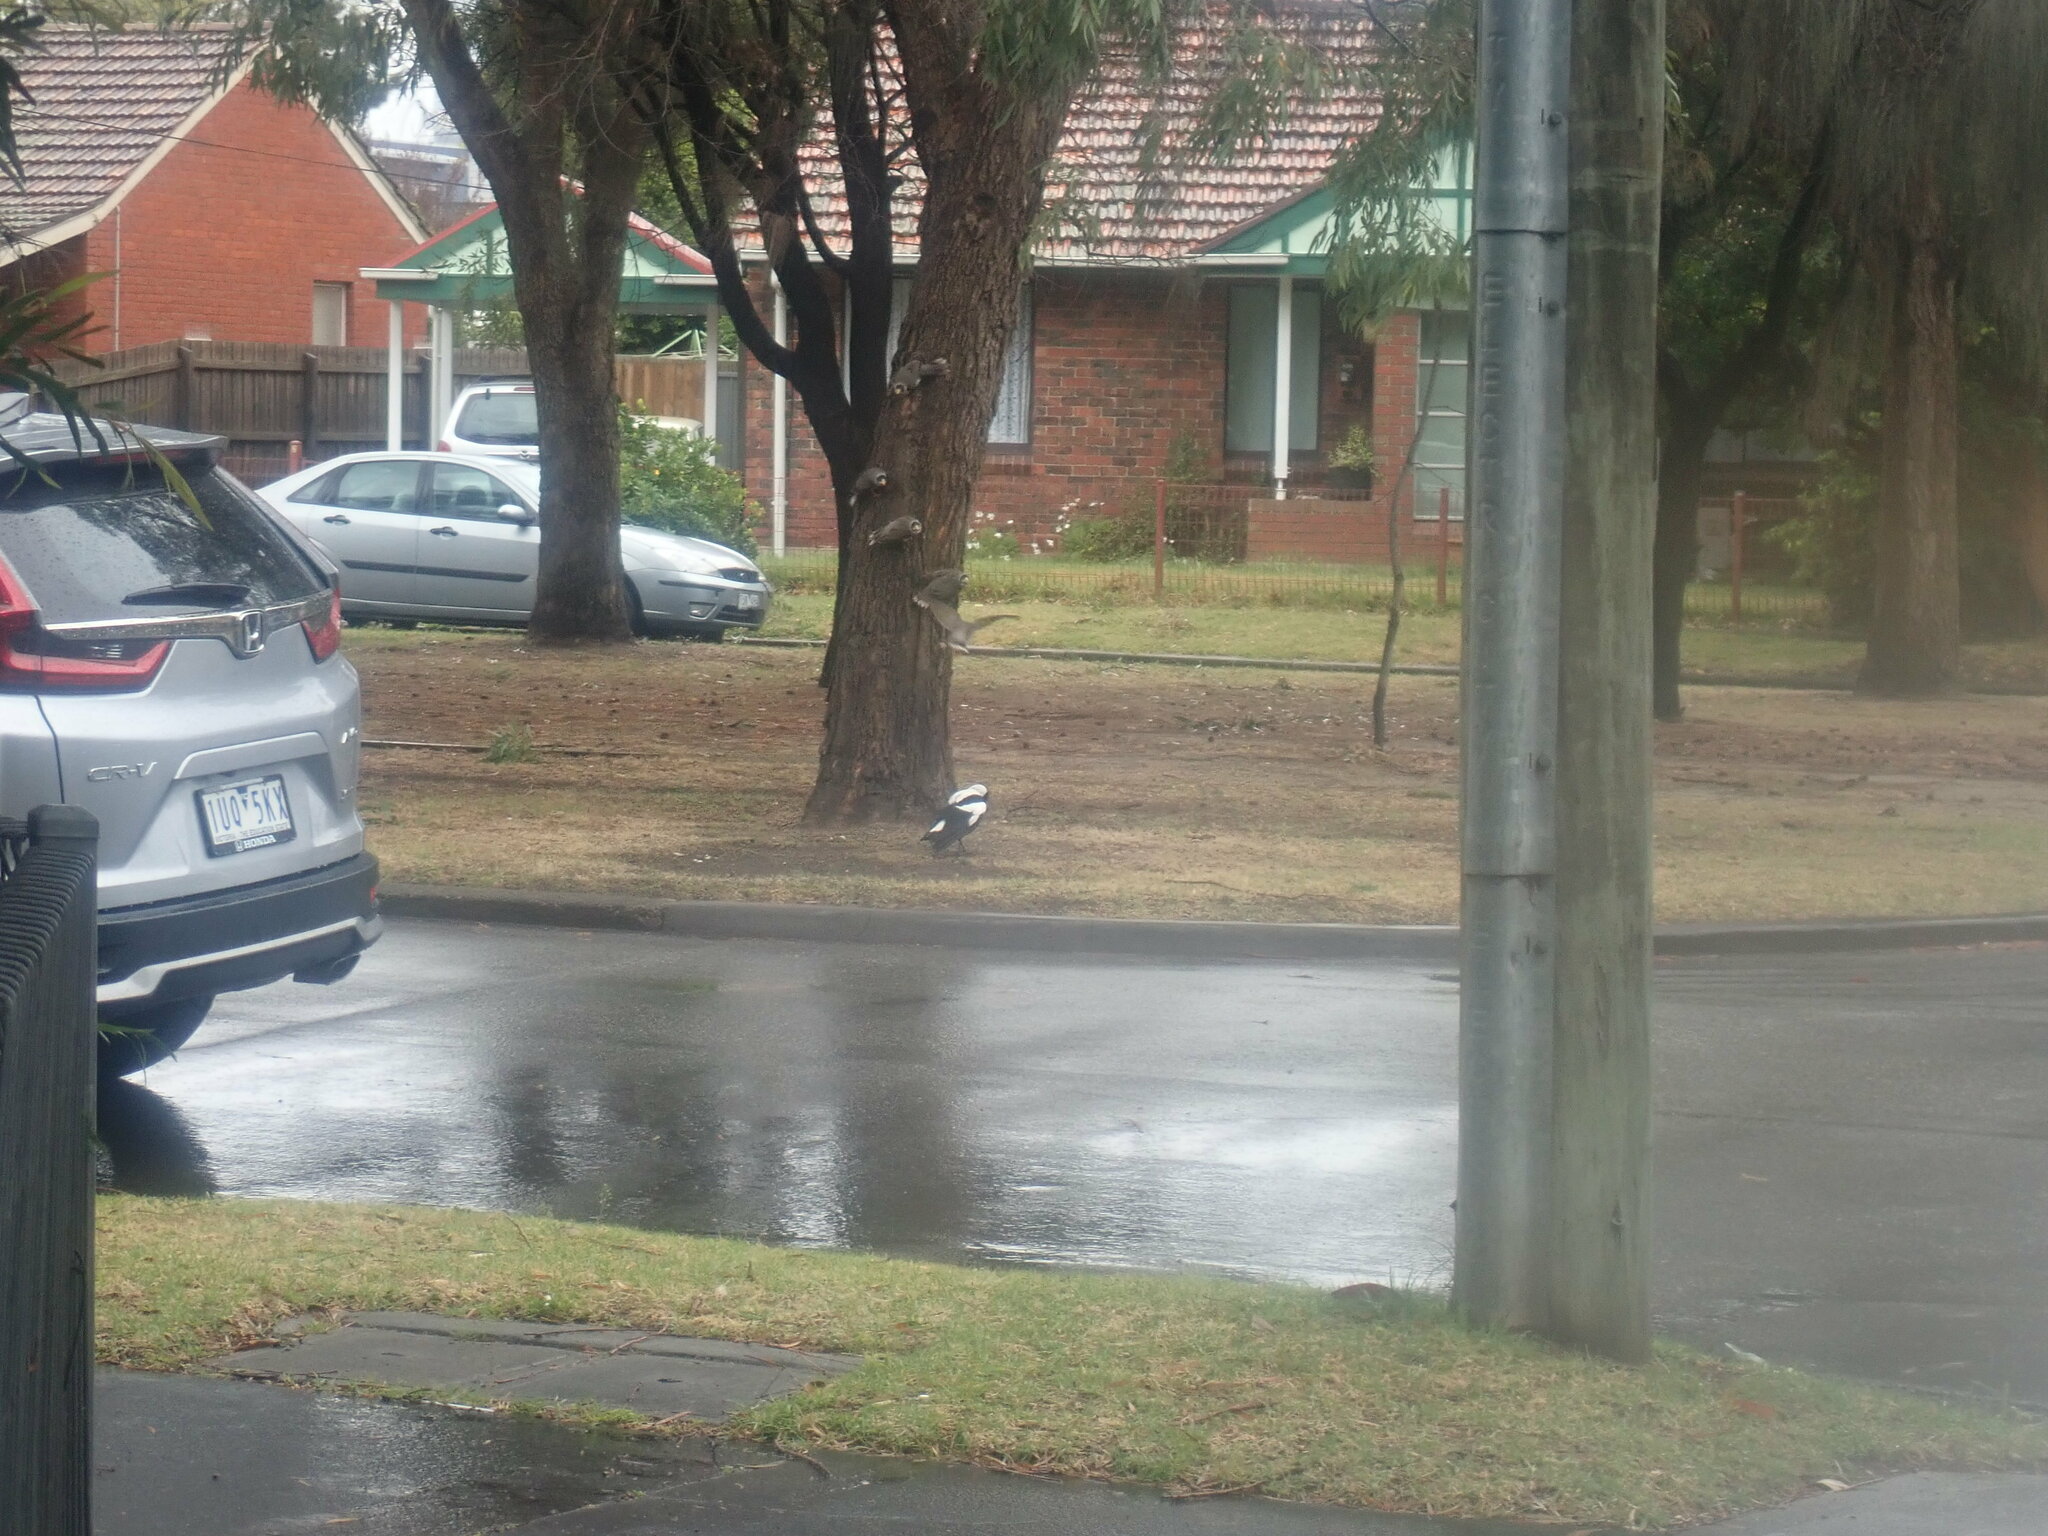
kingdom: Animalia
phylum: Chordata
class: Aves
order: Passeriformes
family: Cracticidae
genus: Gymnorhina
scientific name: Gymnorhina tibicen
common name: Australian magpie
